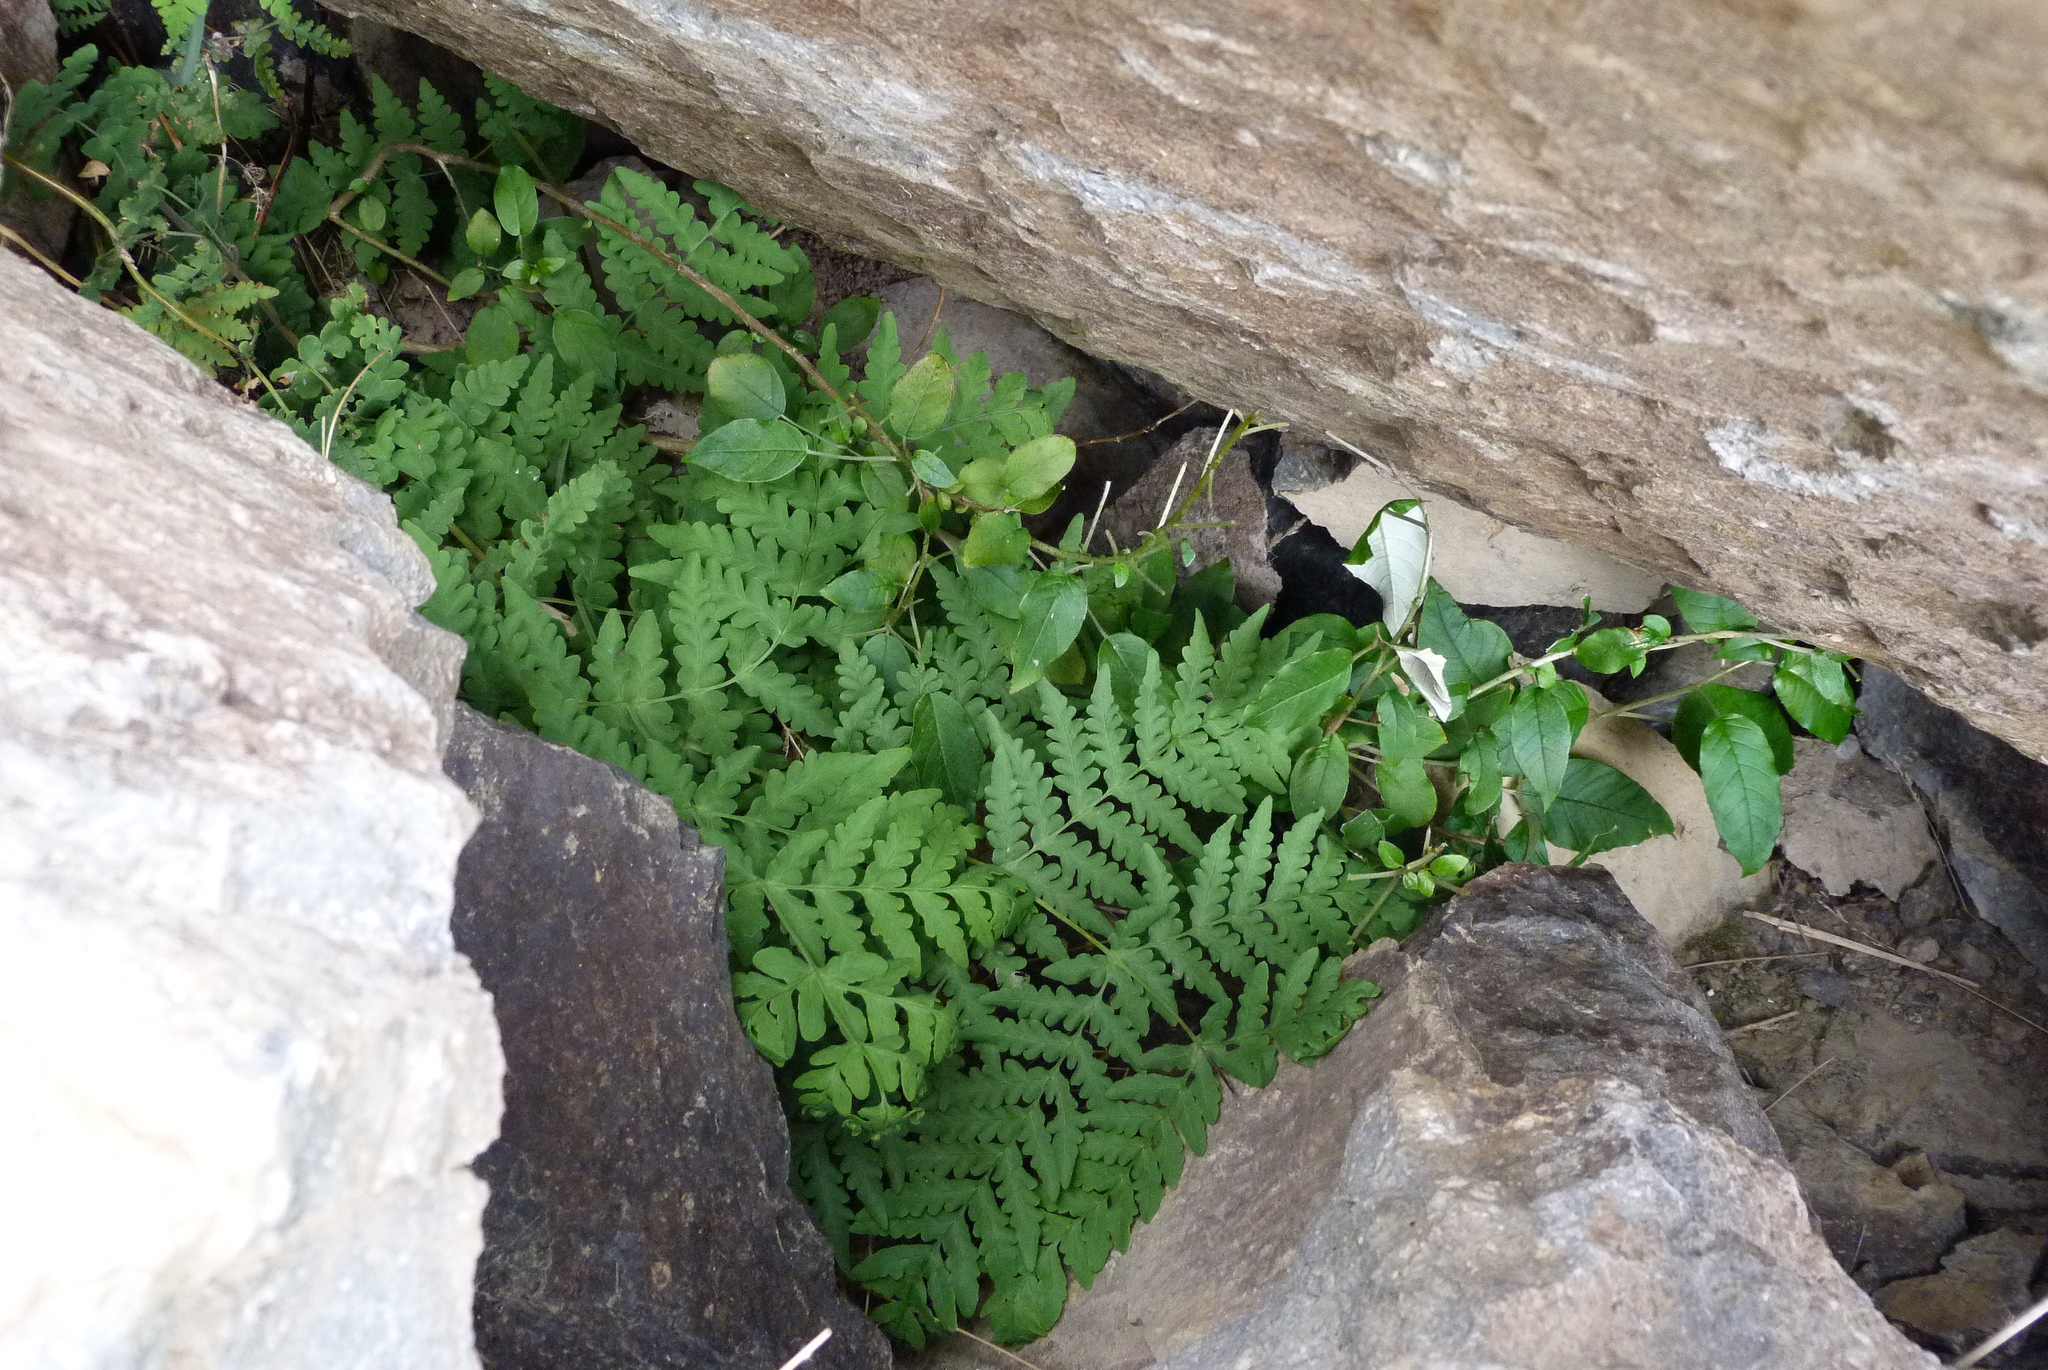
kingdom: Plantae
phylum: Tracheophyta
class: Polypodiopsida
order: Polypodiales
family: Dennstaedtiaceae
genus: Histiopteris
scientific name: Histiopteris incisa
